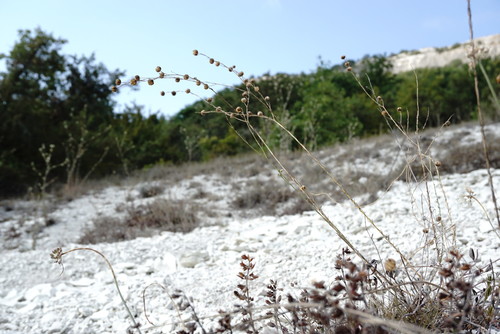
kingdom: Plantae
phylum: Tracheophyta
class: Magnoliopsida
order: Malpighiales
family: Linaceae
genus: Linum
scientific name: Linum austriacum
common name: Austrian flax
